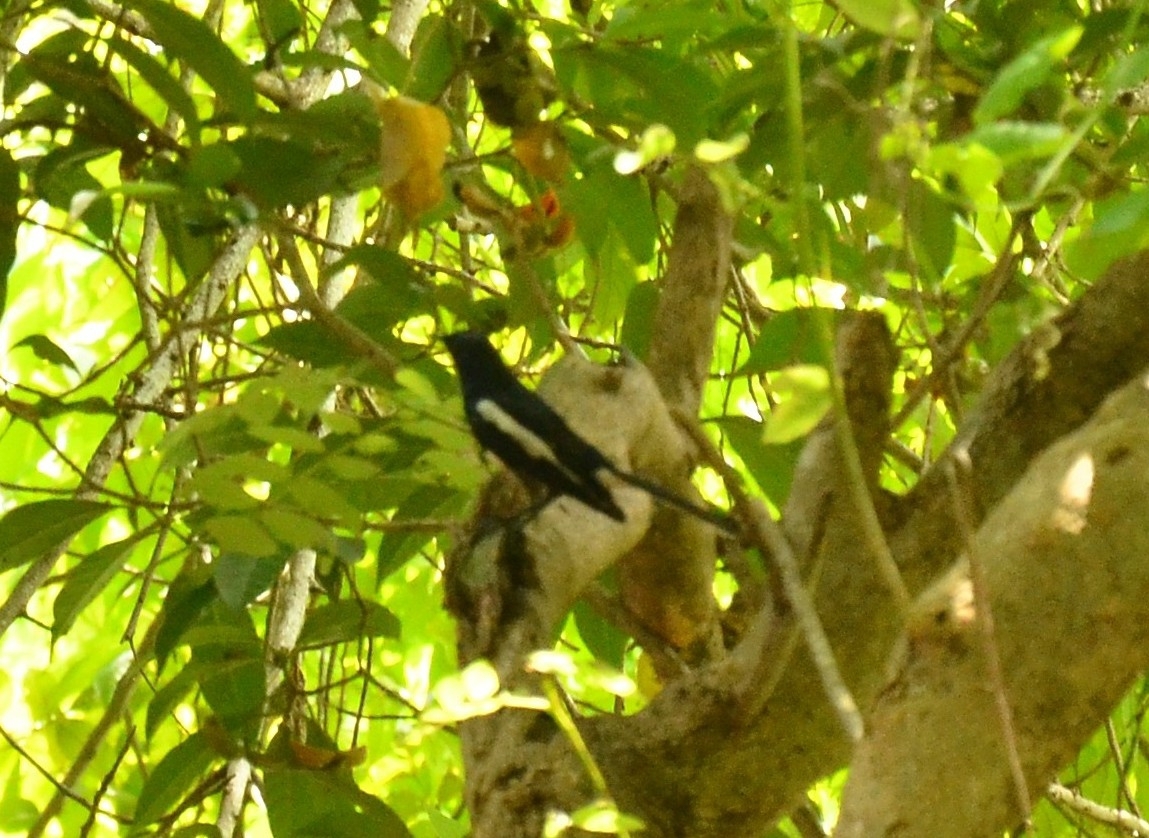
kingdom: Animalia
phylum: Chordata
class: Aves
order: Passeriformes
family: Muscicapidae
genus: Copsychus
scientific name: Copsychus saularis
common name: Oriental magpie-robin
